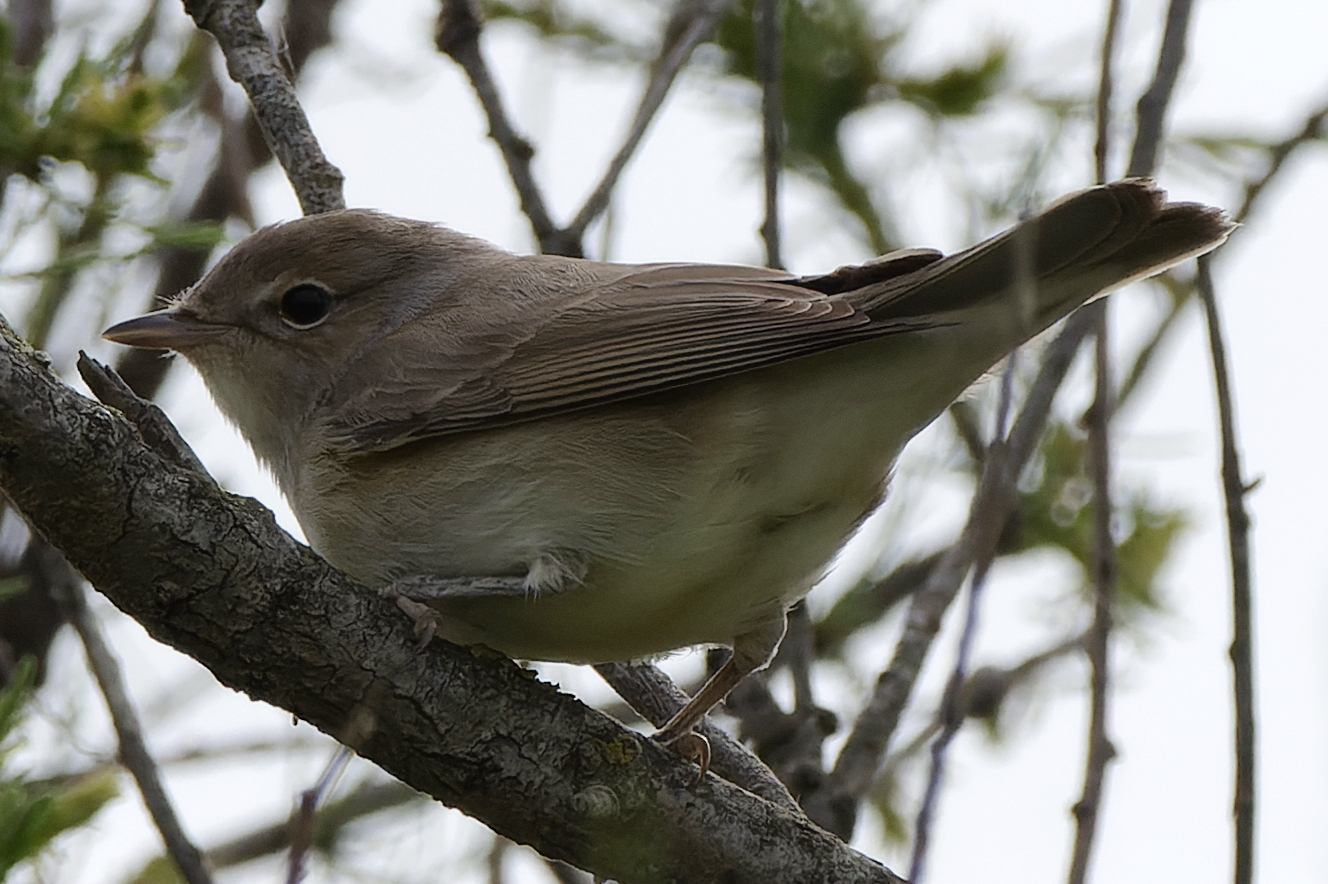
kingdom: Animalia
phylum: Chordata
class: Aves
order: Passeriformes
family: Sylviidae
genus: Sylvia
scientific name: Sylvia borin
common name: Garden warbler
